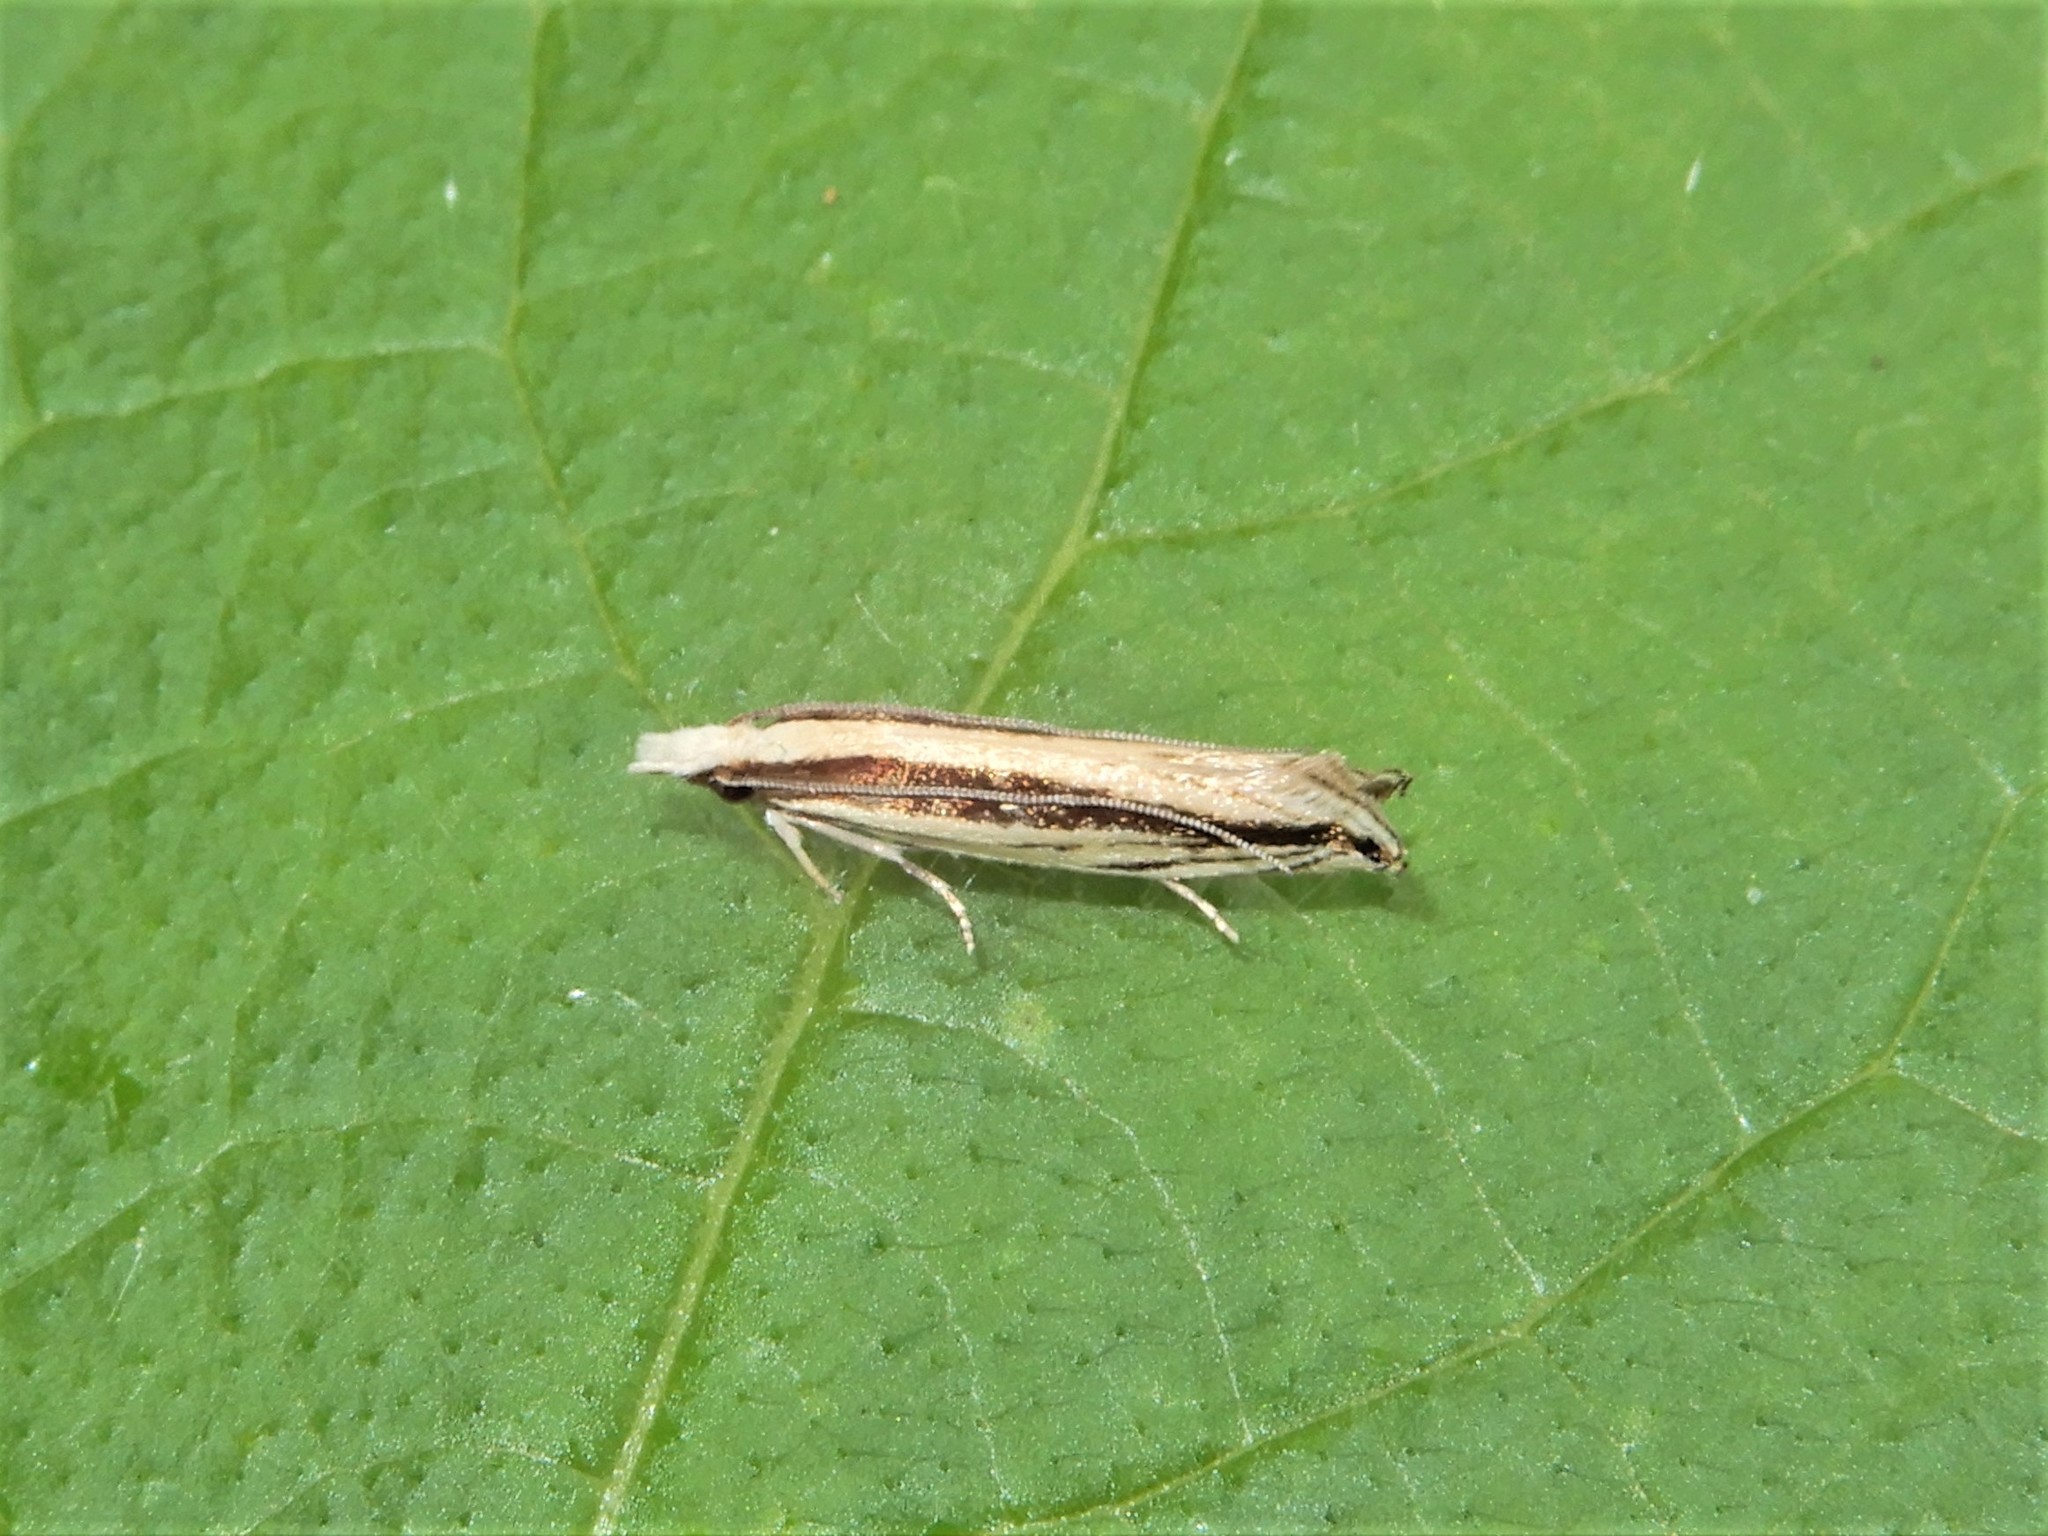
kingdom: Animalia
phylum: Arthropoda
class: Insecta
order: Lepidoptera
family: Tineidae
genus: Erechthias
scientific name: Erechthias stilbella
